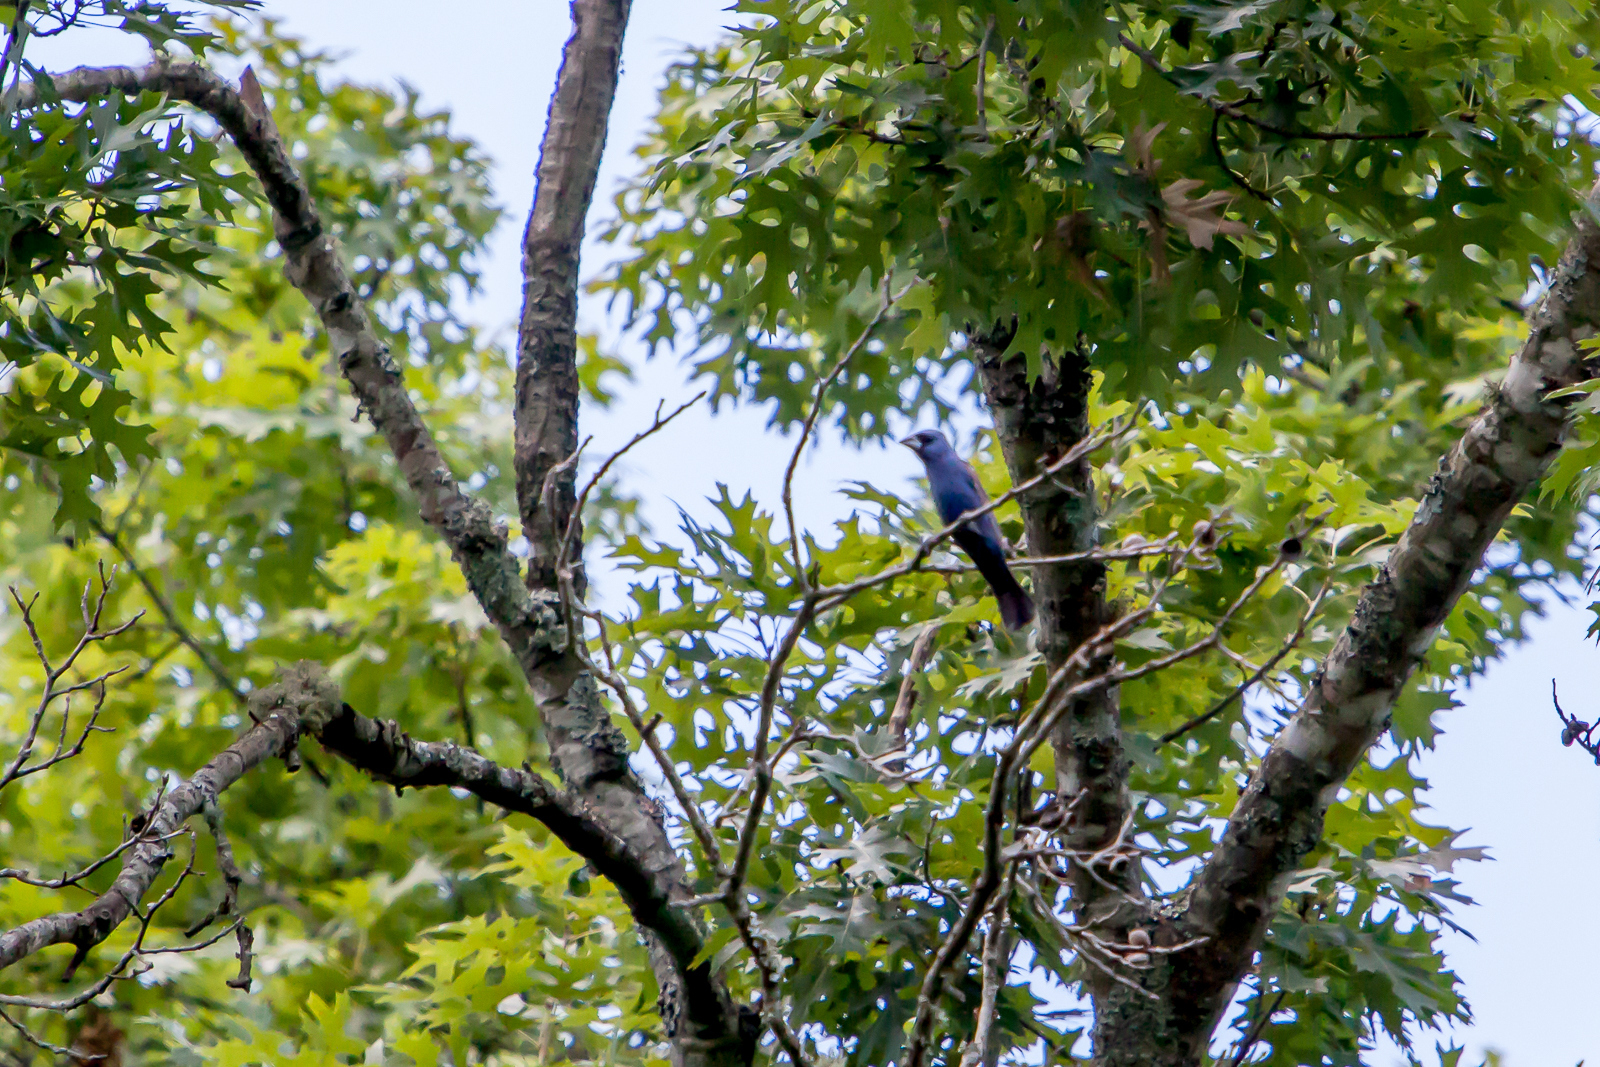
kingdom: Animalia
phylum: Chordata
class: Aves
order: Passeriformes
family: Cardinalidae
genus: Passerina
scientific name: Passerina caerulea
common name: Blue grosbeak
